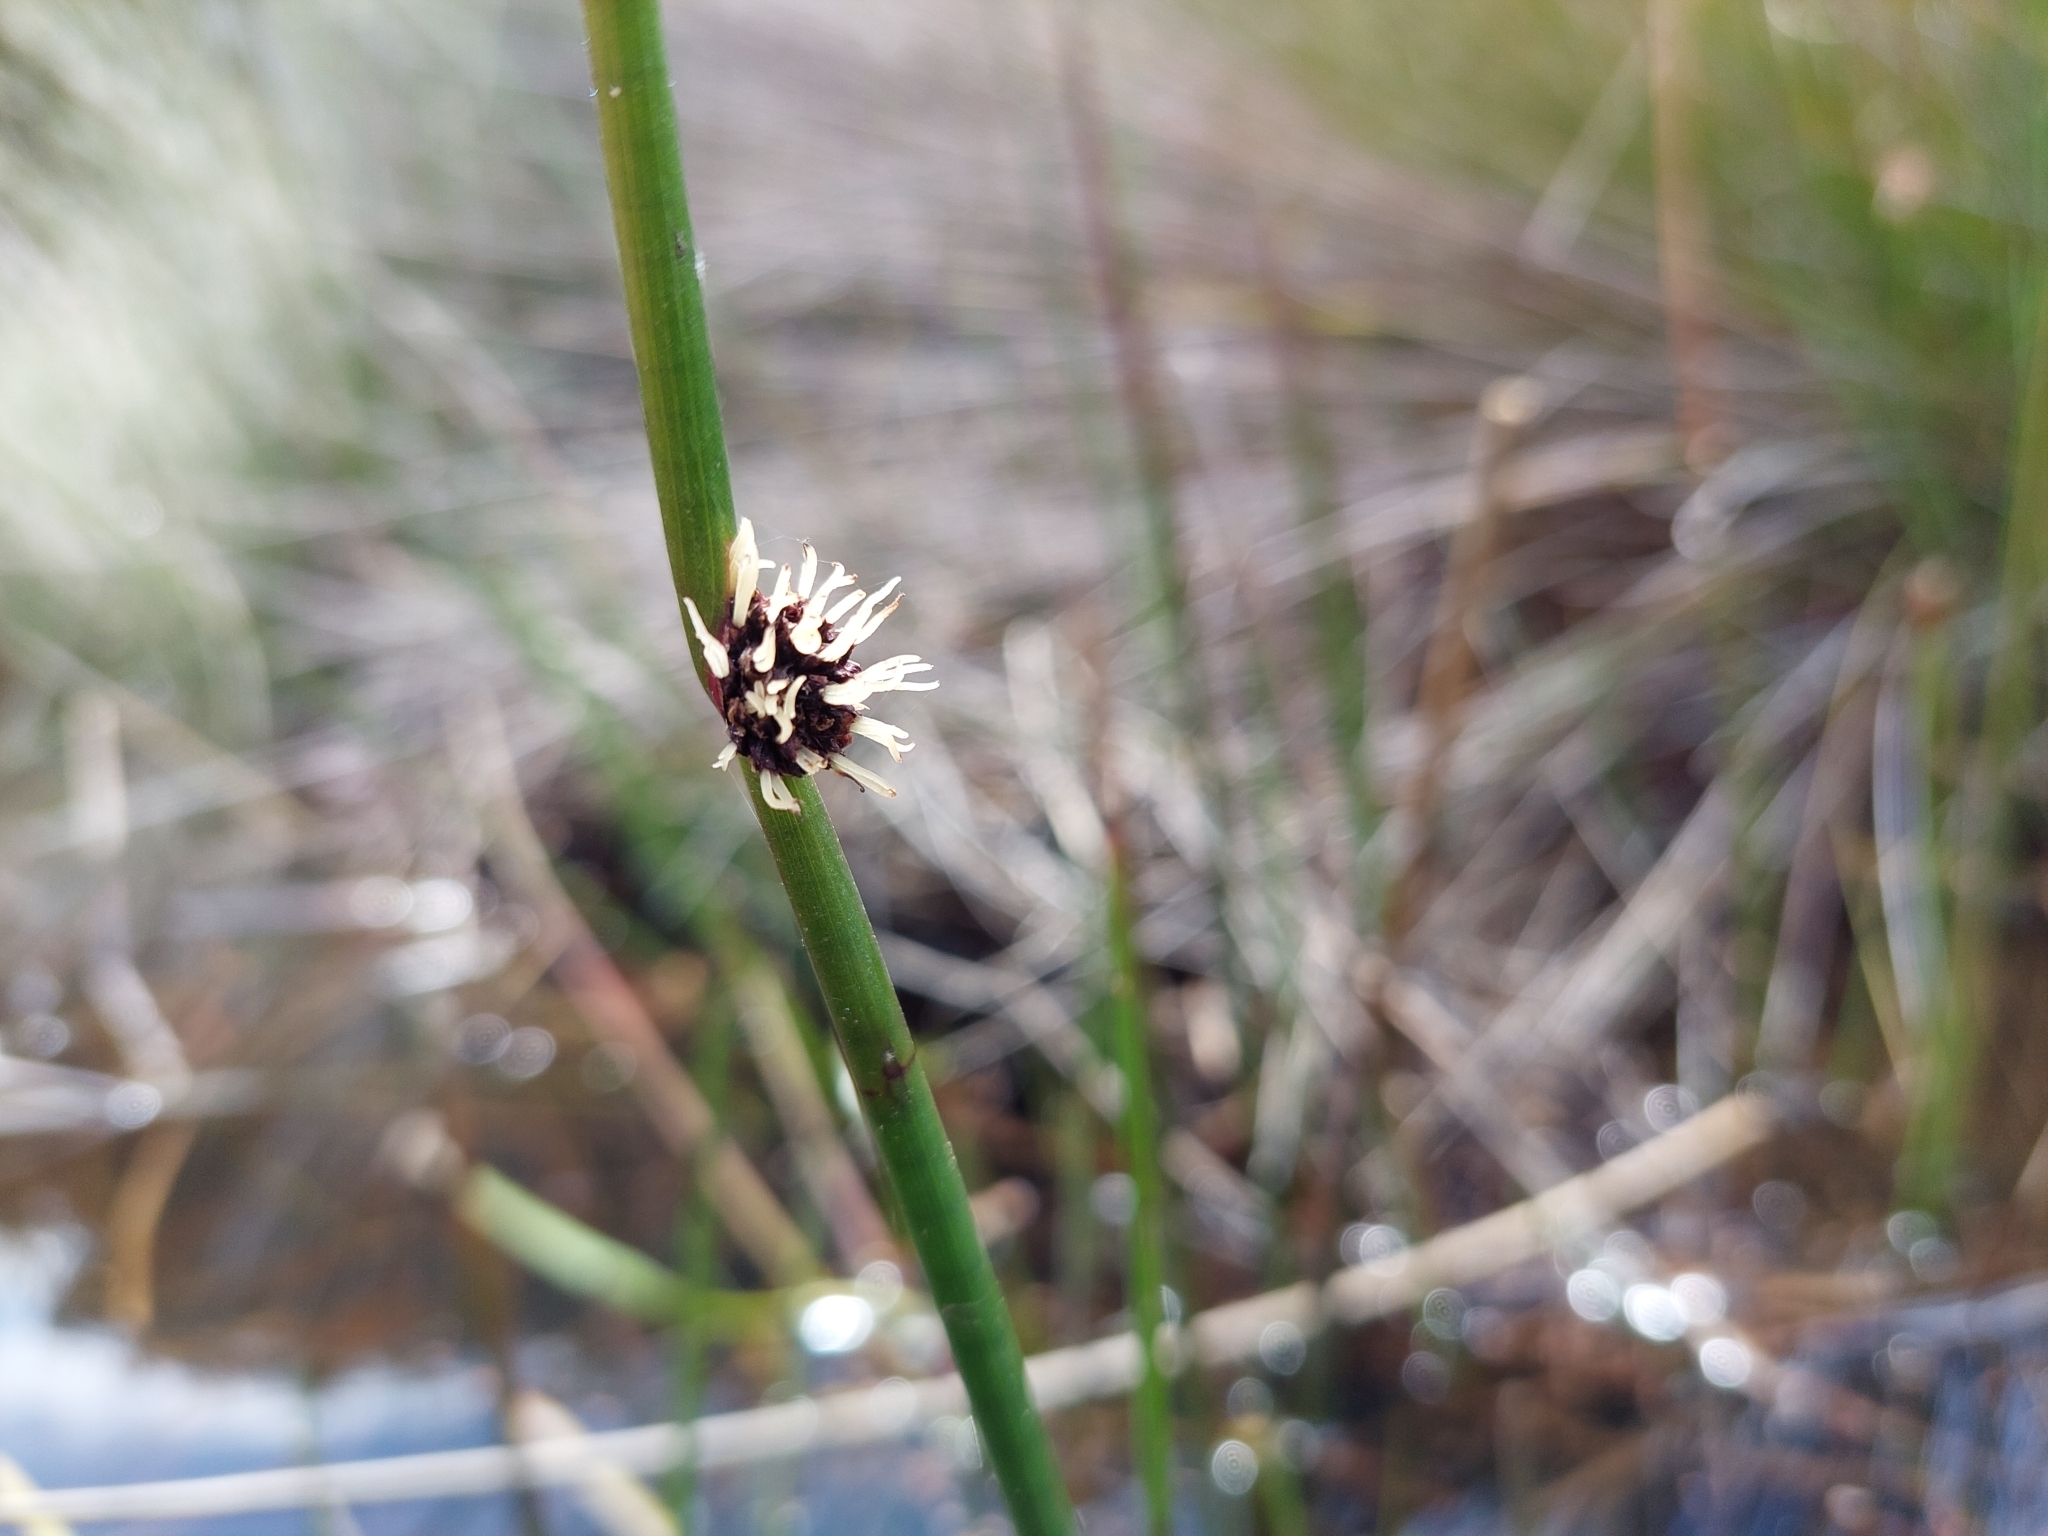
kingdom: Plantae
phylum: Tracheophyta
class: Liliopsida
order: Poales
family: Cyperaceae
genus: Chorizandra
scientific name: Chorizandra australis
